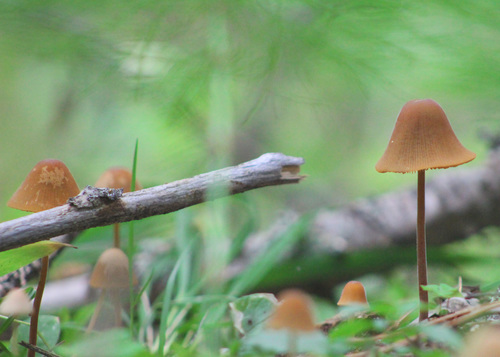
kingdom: Fungi
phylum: Basidiomycota
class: Agaricomycetes
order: Agaricales
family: Bolbitiaceae
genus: Conocybe
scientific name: Conocybe
